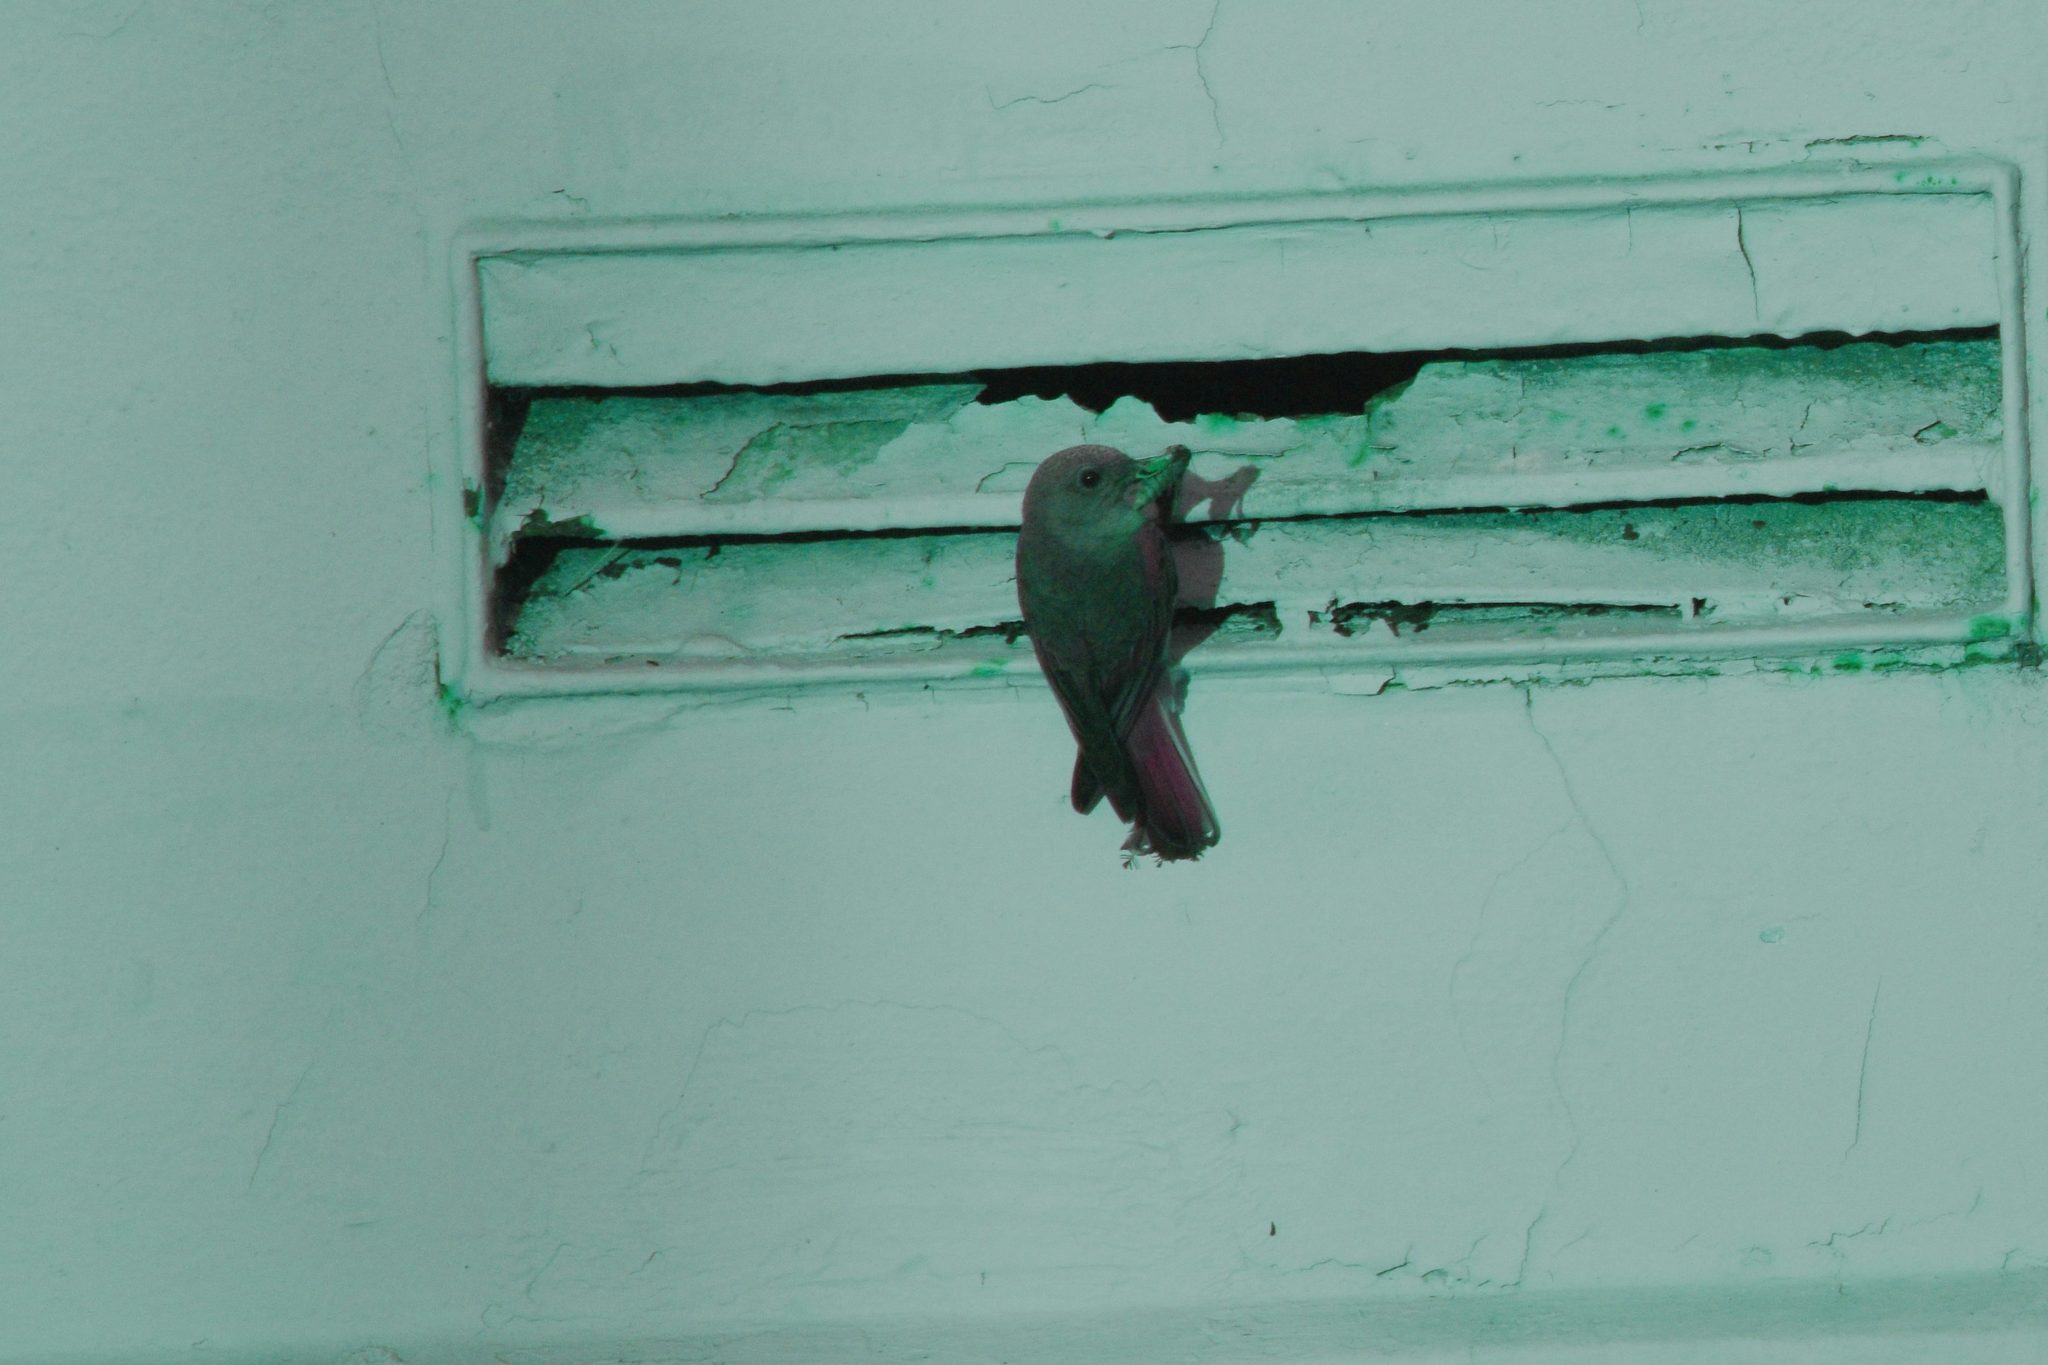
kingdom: Animalia
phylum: Chordata
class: Aves
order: Passeriformes
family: Turdidae
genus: Sialia
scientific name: Sialia mexicana
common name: Western bluebird
